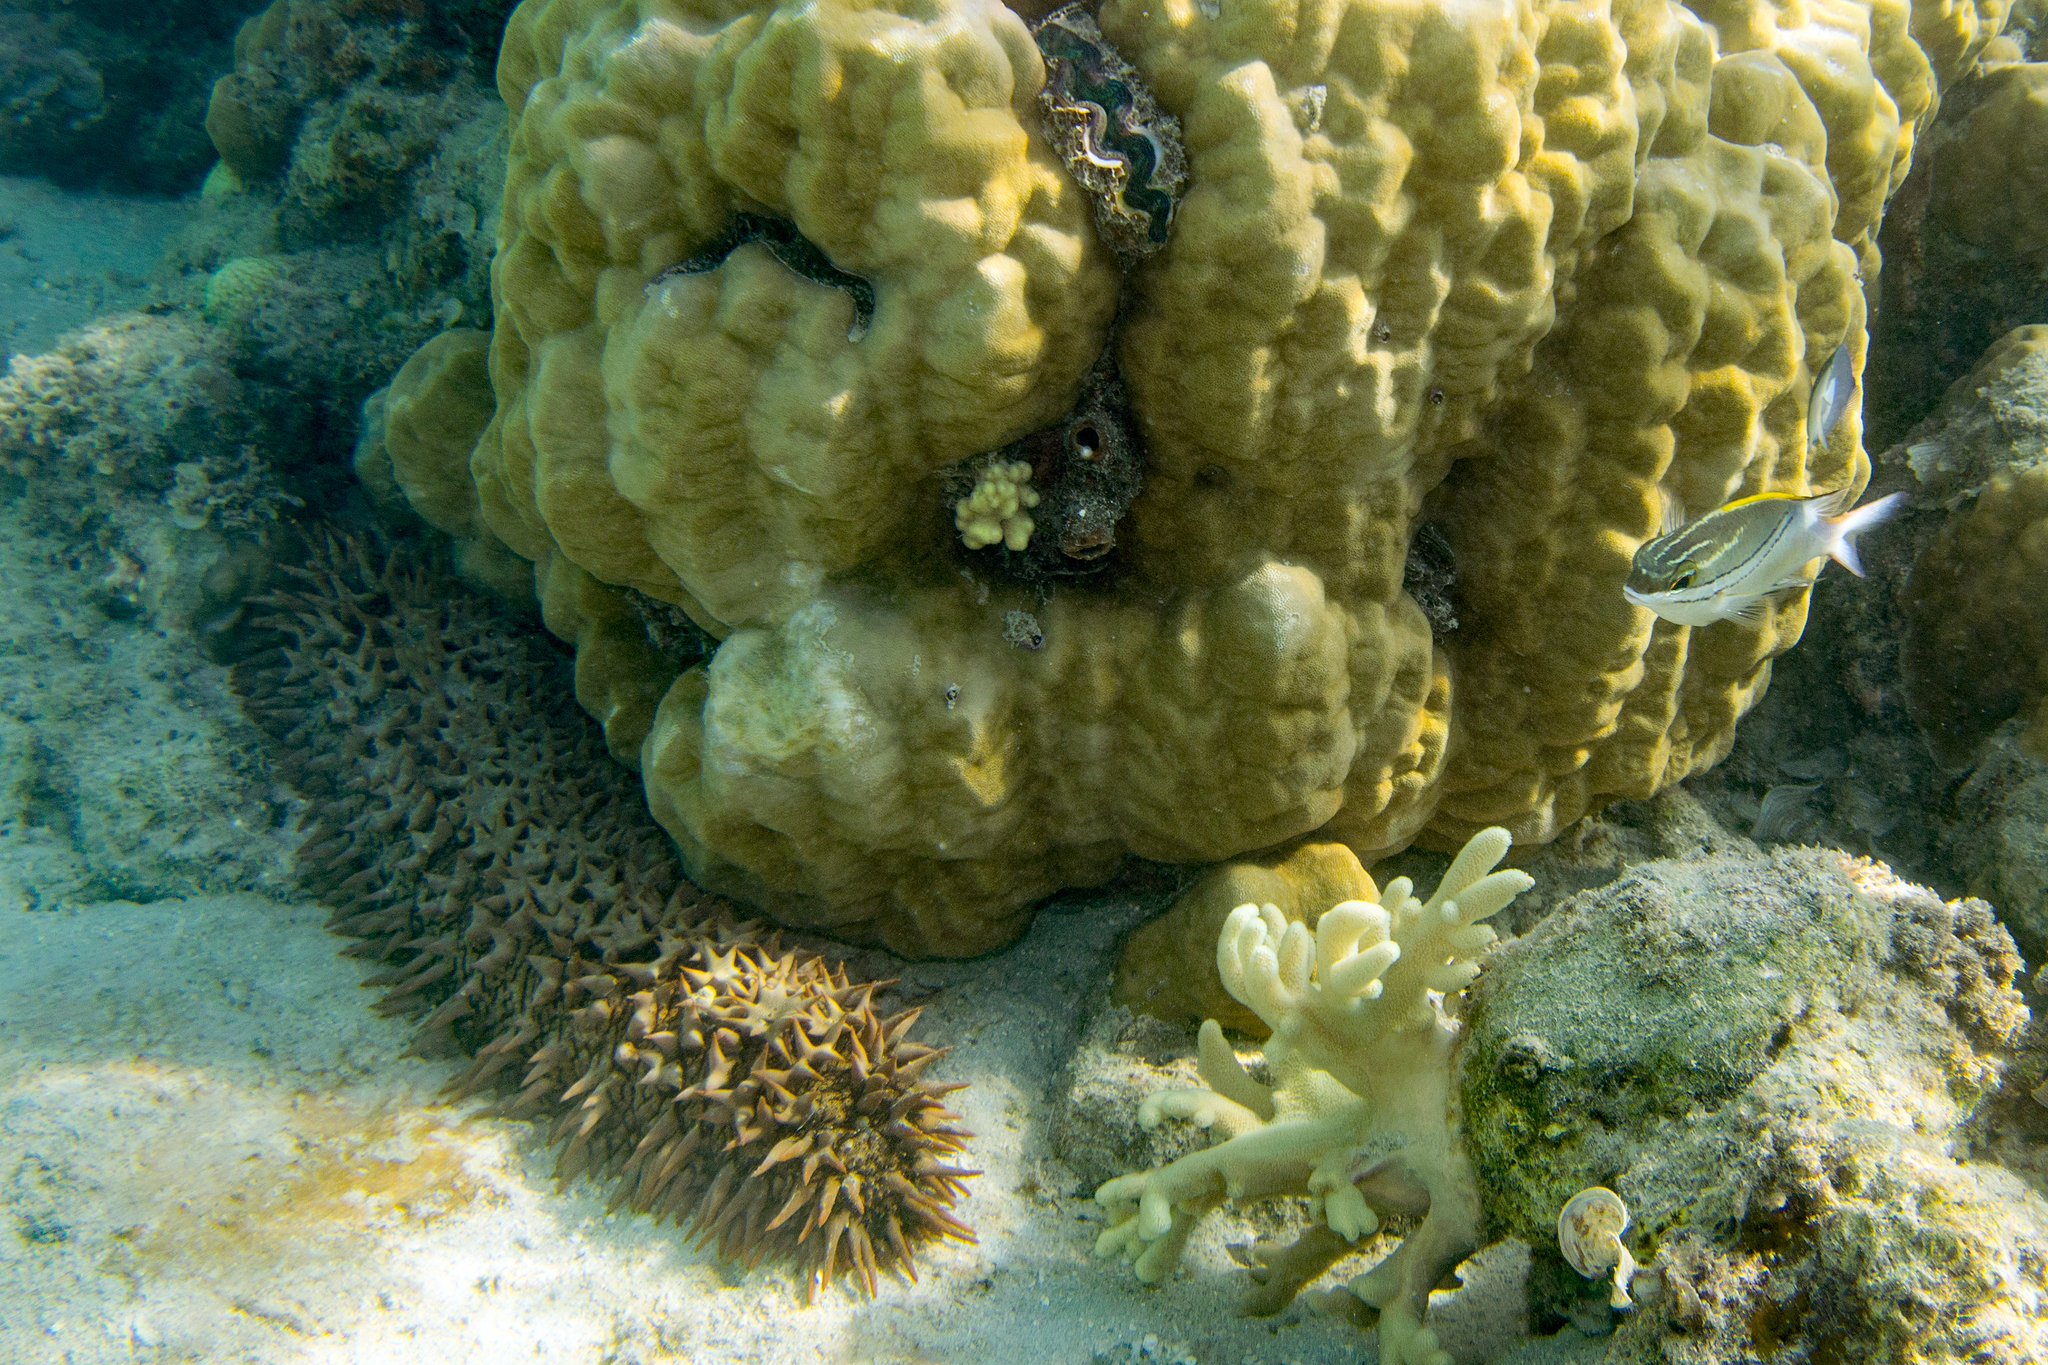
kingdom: Animalia
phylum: Chordata
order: Perciformes
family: Nemipteridae
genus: Scolopsis
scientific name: Scolopsis bilineata
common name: Two-lined monocle bream
